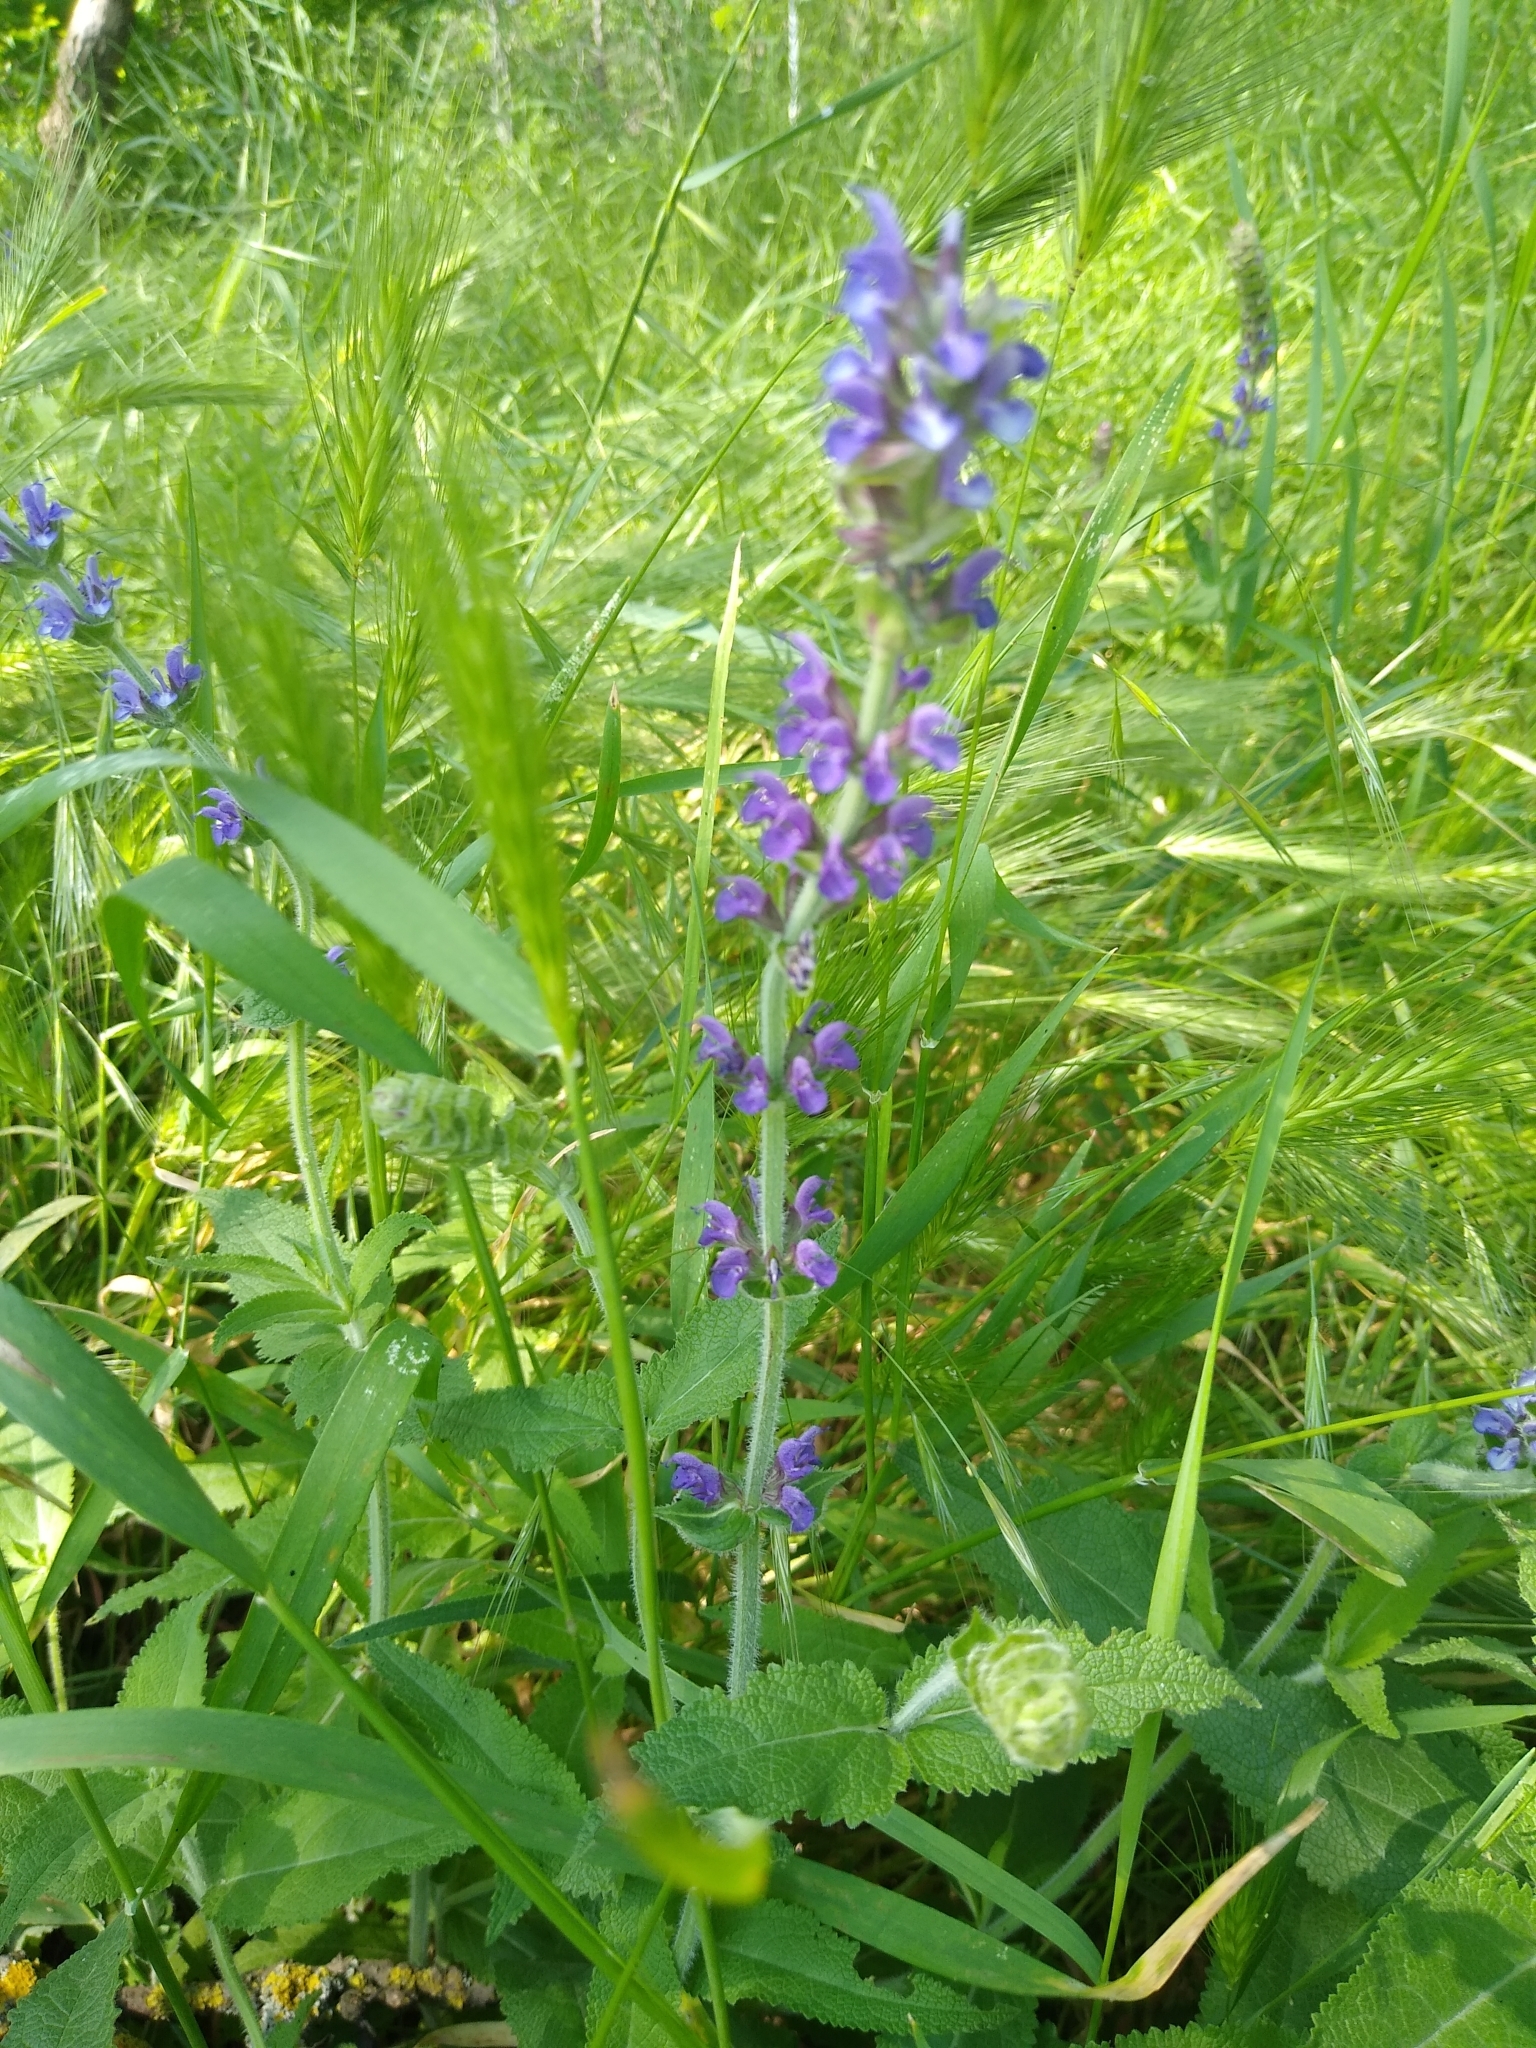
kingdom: Plantae
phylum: Tracheophyta
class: Magnoliopsida
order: Lamiales
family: Lamiaceae
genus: Salvia
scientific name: Salvia nemorosa
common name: Balkan clary
